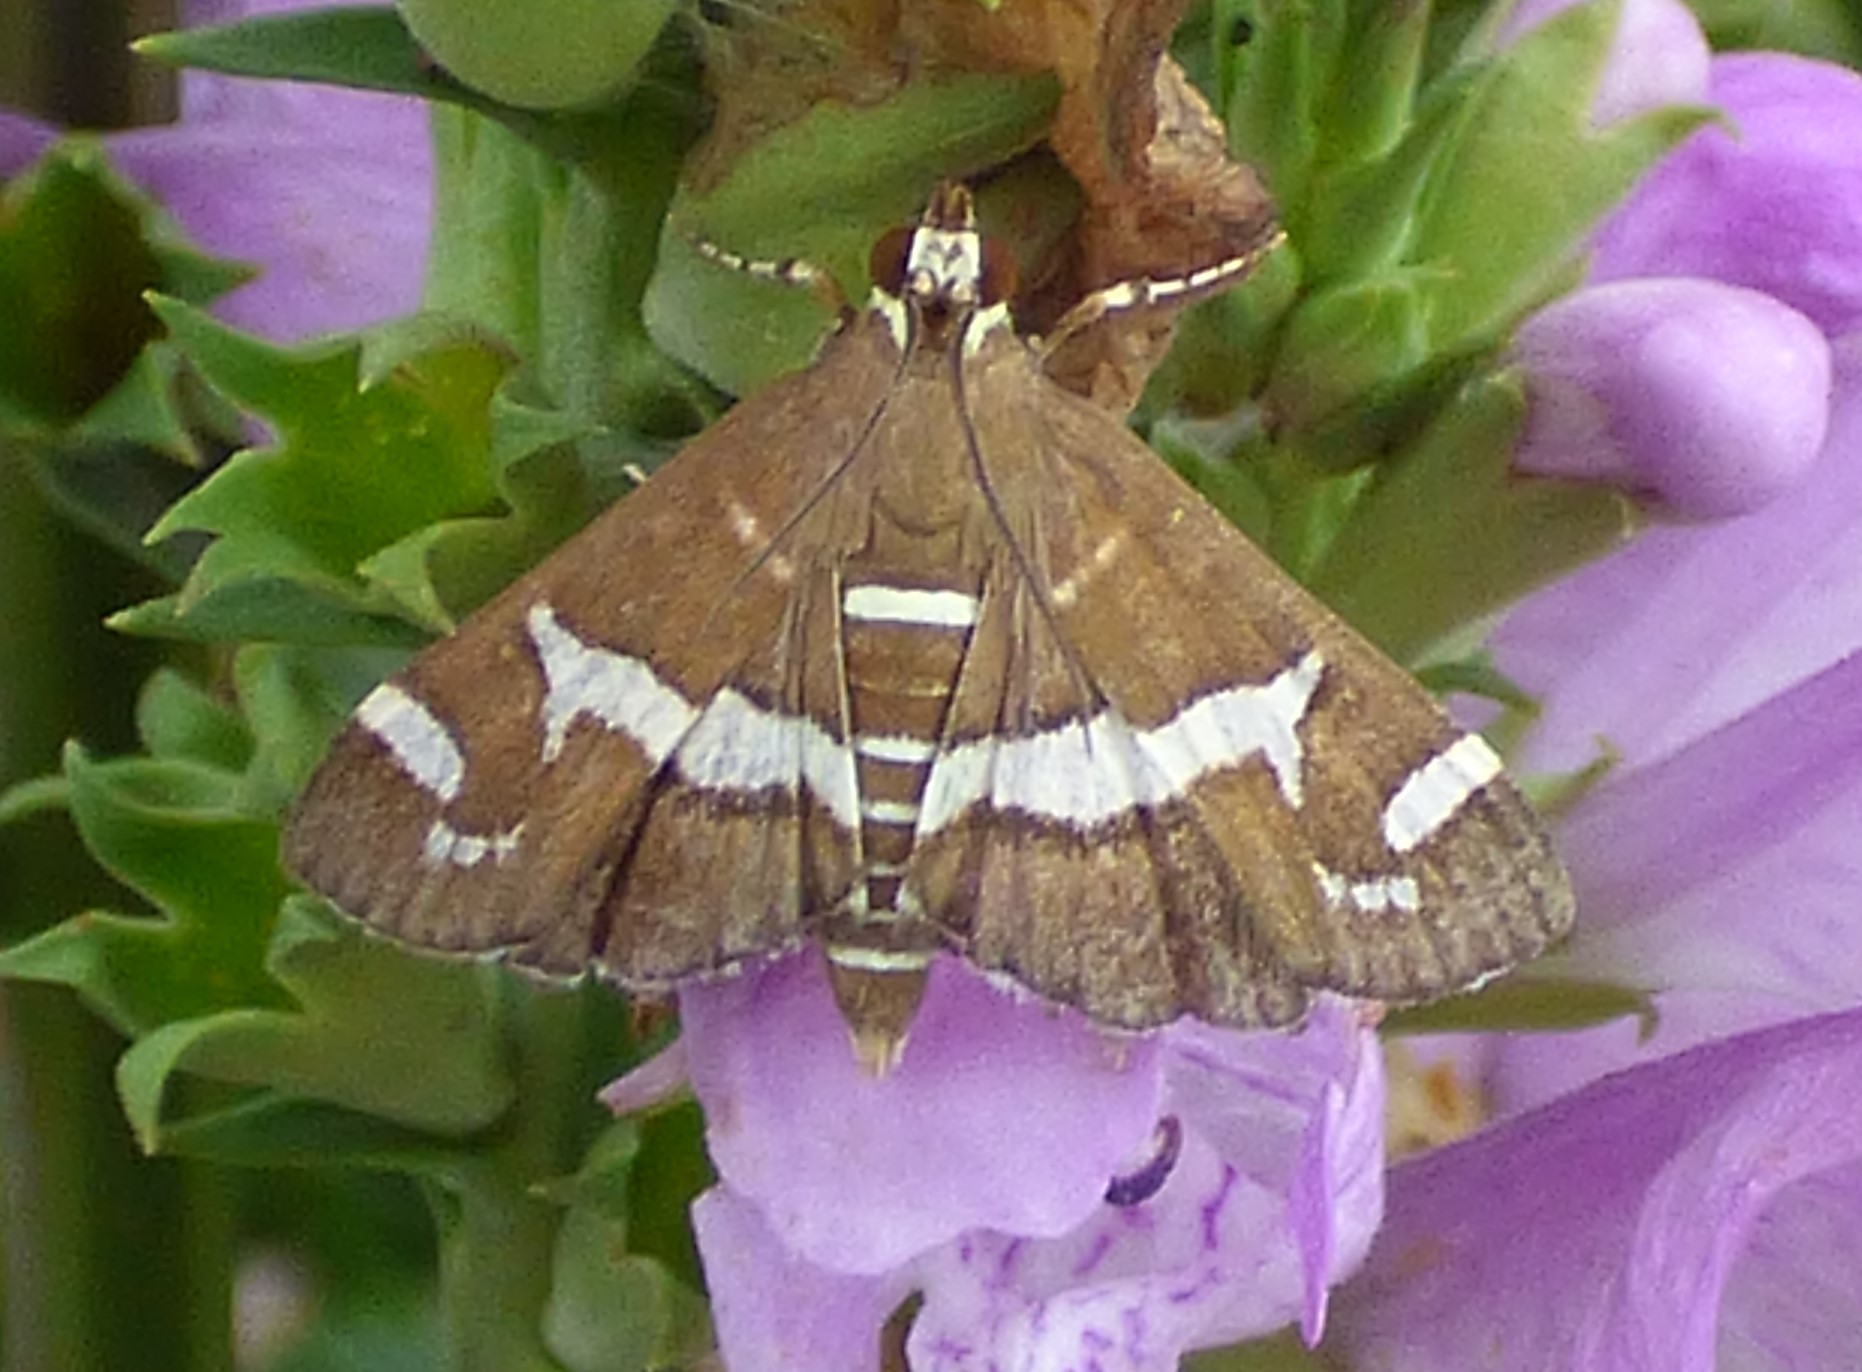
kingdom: Animalia
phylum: Arthropoda
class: Insecta
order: Lepidoptera
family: Crambidae
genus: Spoladea
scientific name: Spoladea recurvalis
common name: Beet webworm moth
